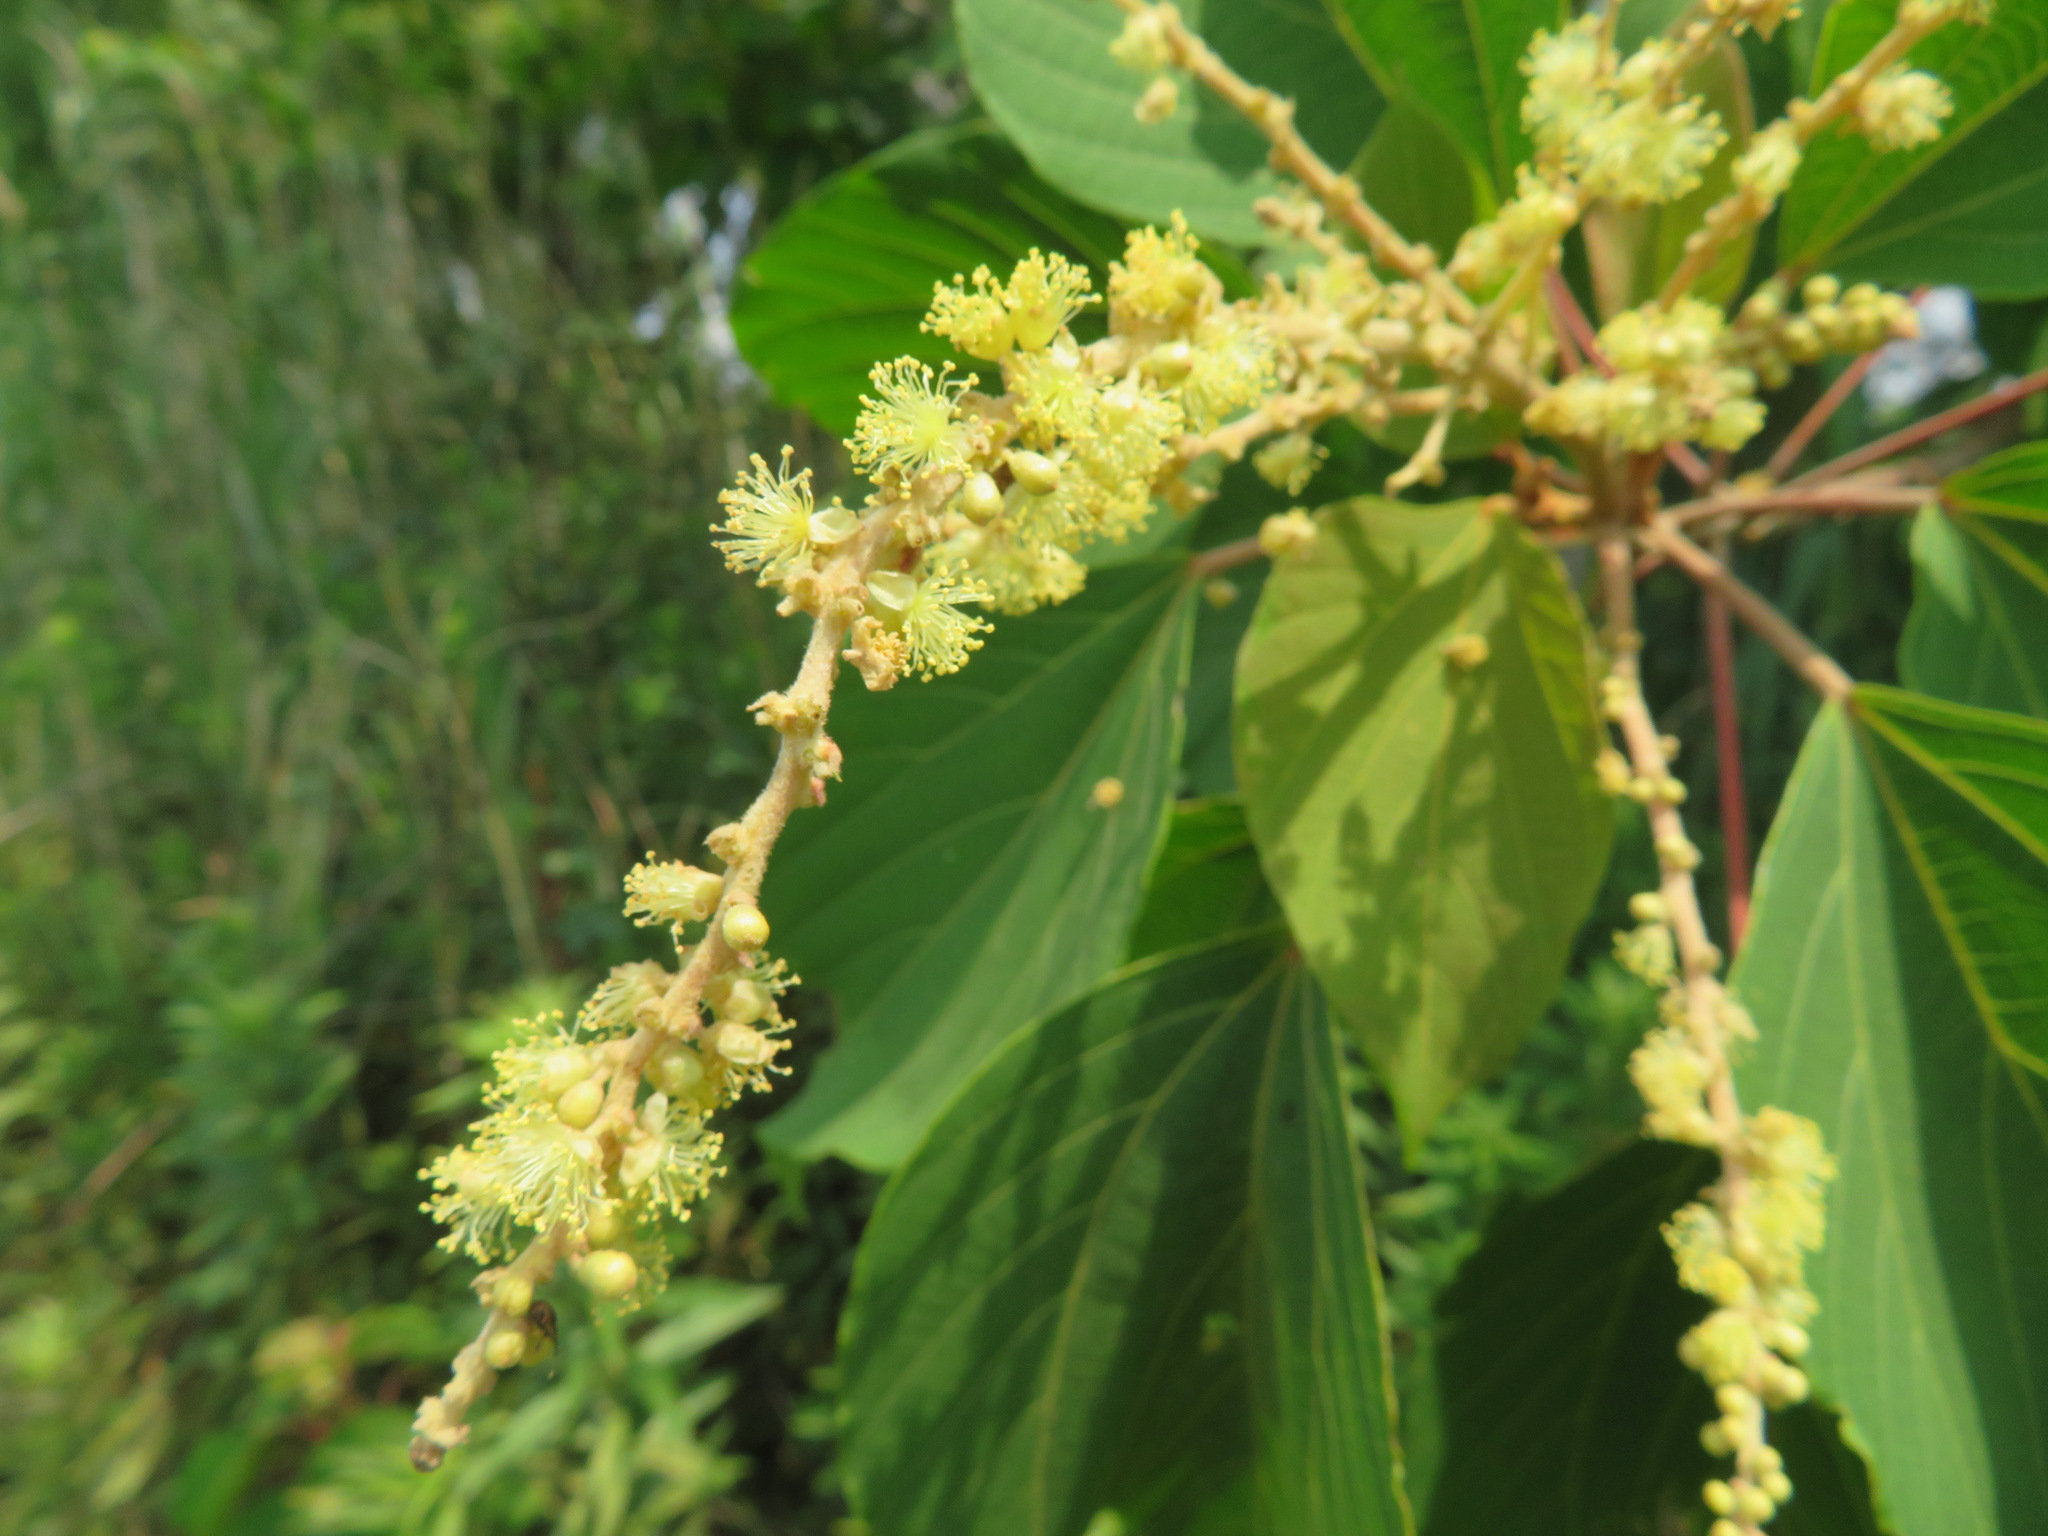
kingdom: Plantae
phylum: Tracheophyta
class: Magnoliopsida
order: Malpighiales
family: Euphorbiaceae
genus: Mallotus
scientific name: Mallotus japonicus
